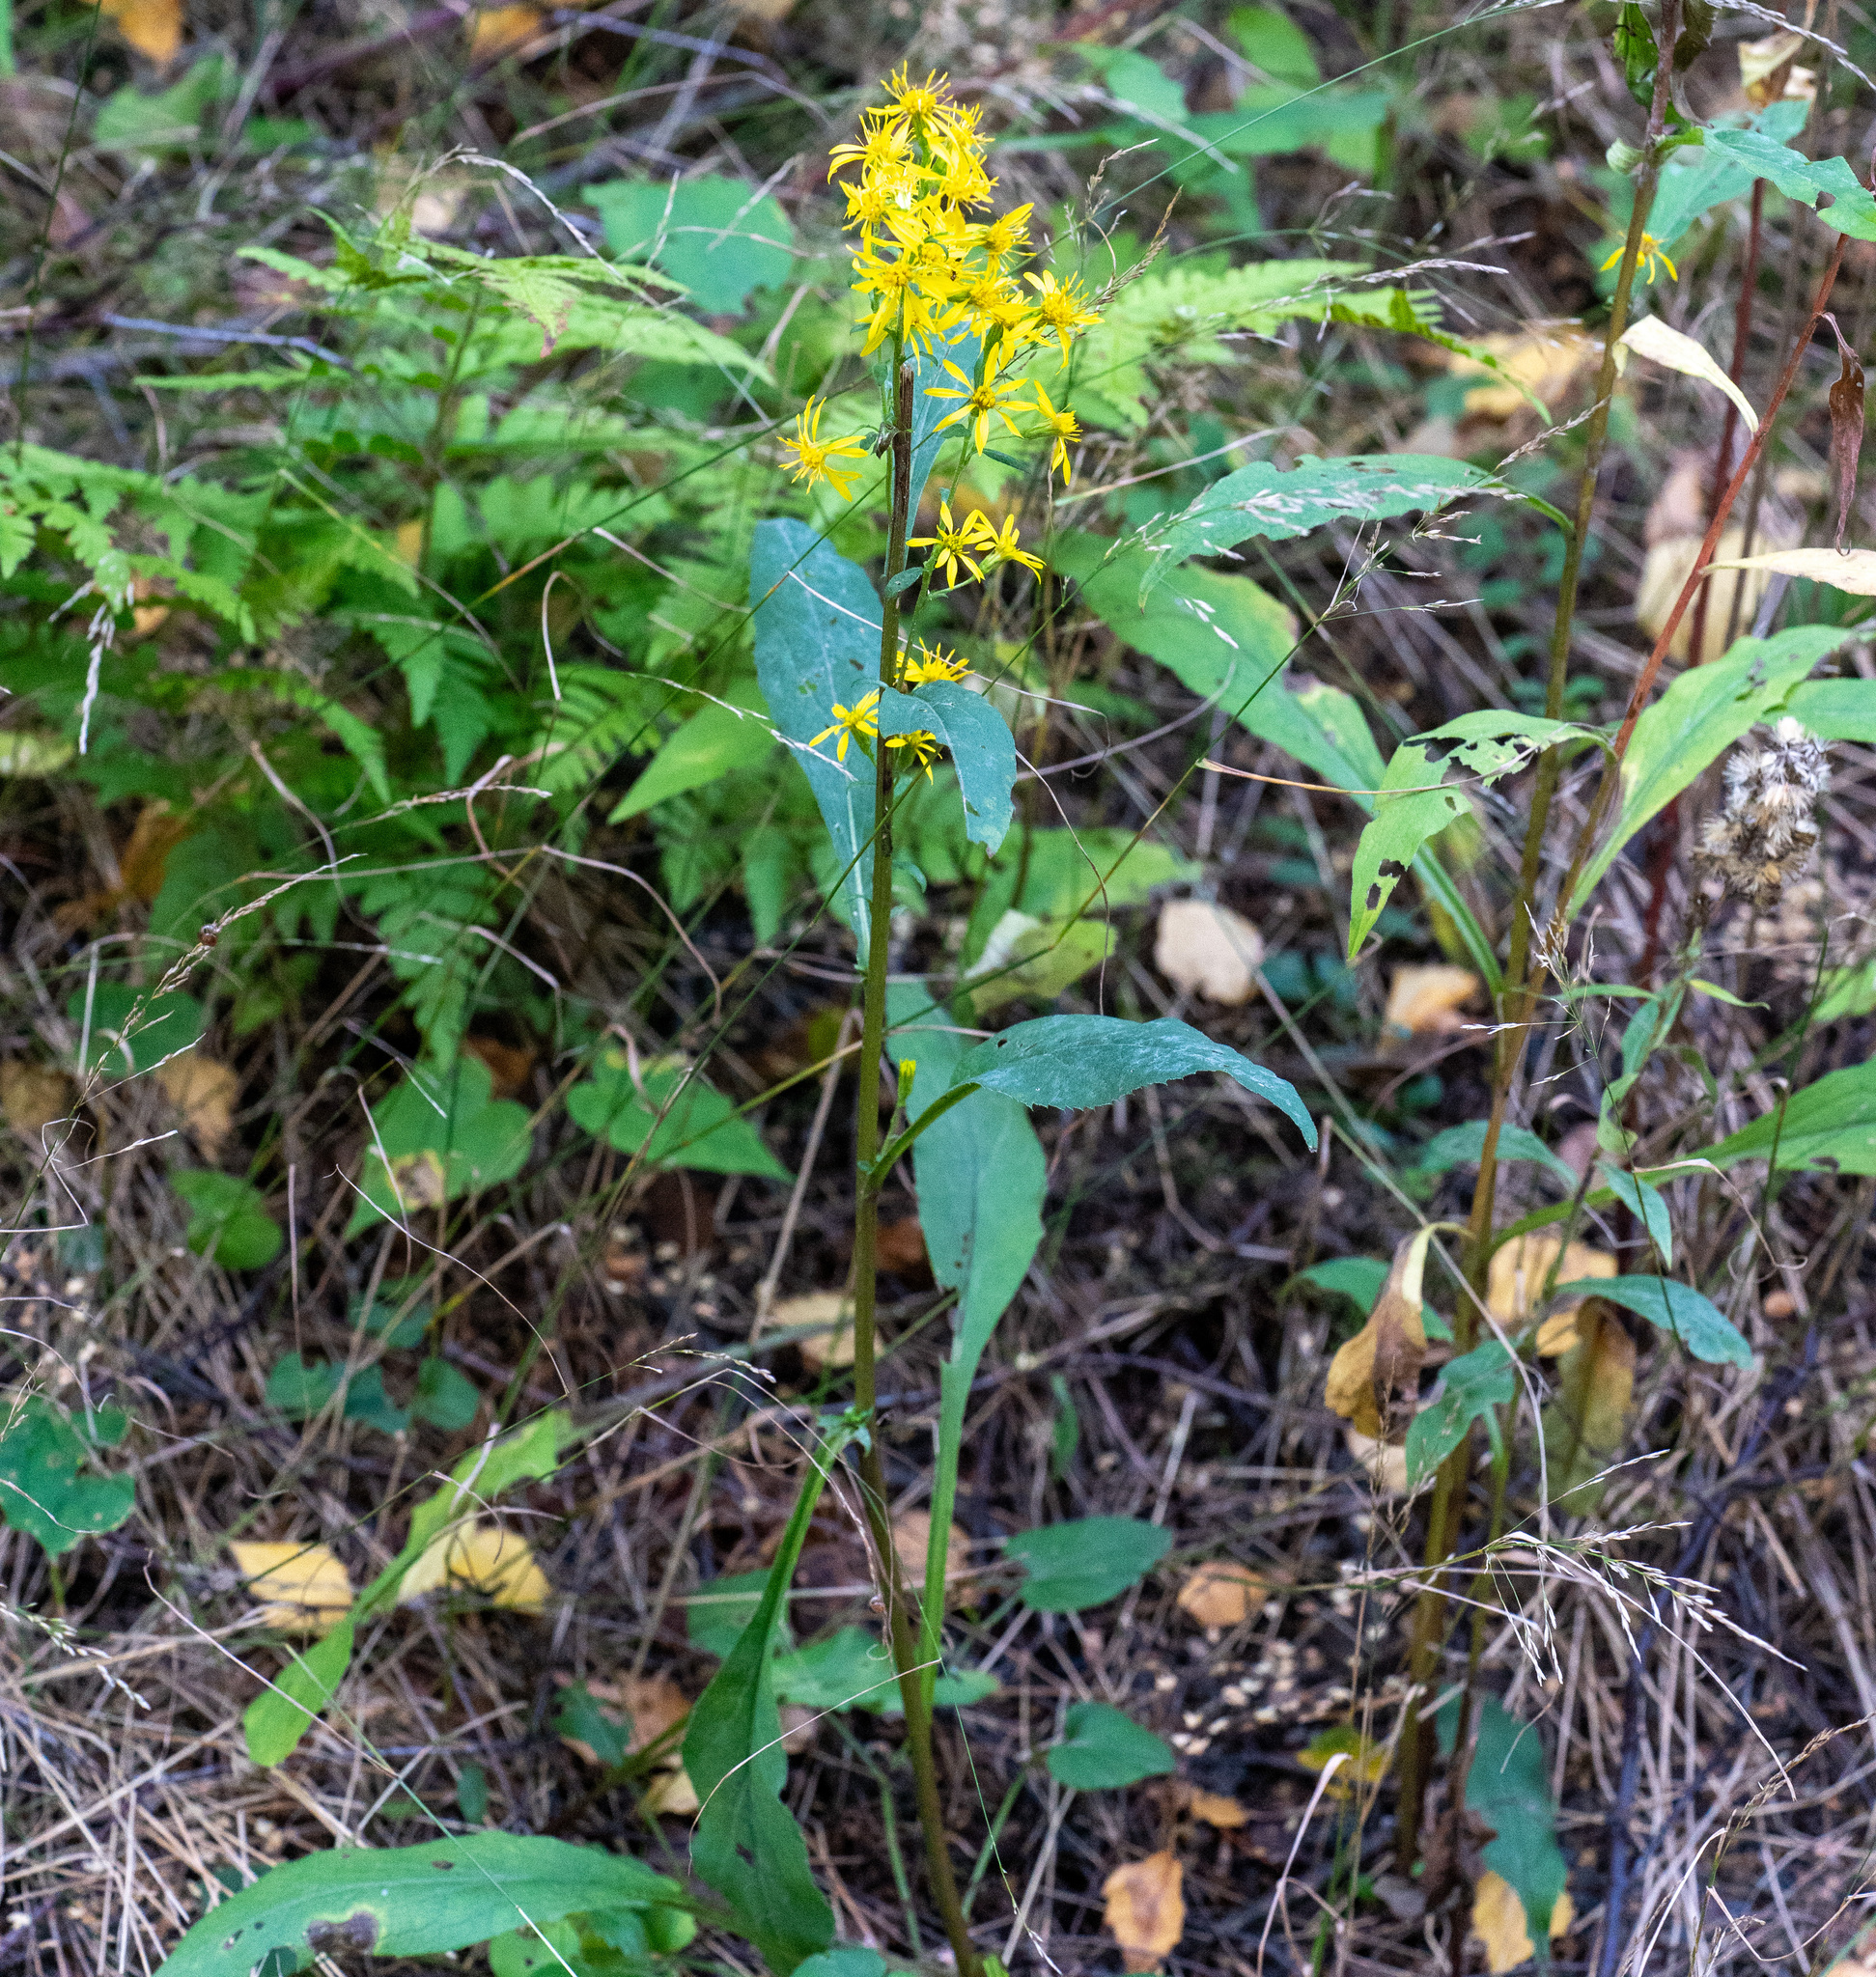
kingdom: Plantae
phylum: Tracheophyta
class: Magnoliopsida
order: Asterales
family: Asteraceae
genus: Solidago
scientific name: Solidago virgaurea
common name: Goldenrod
